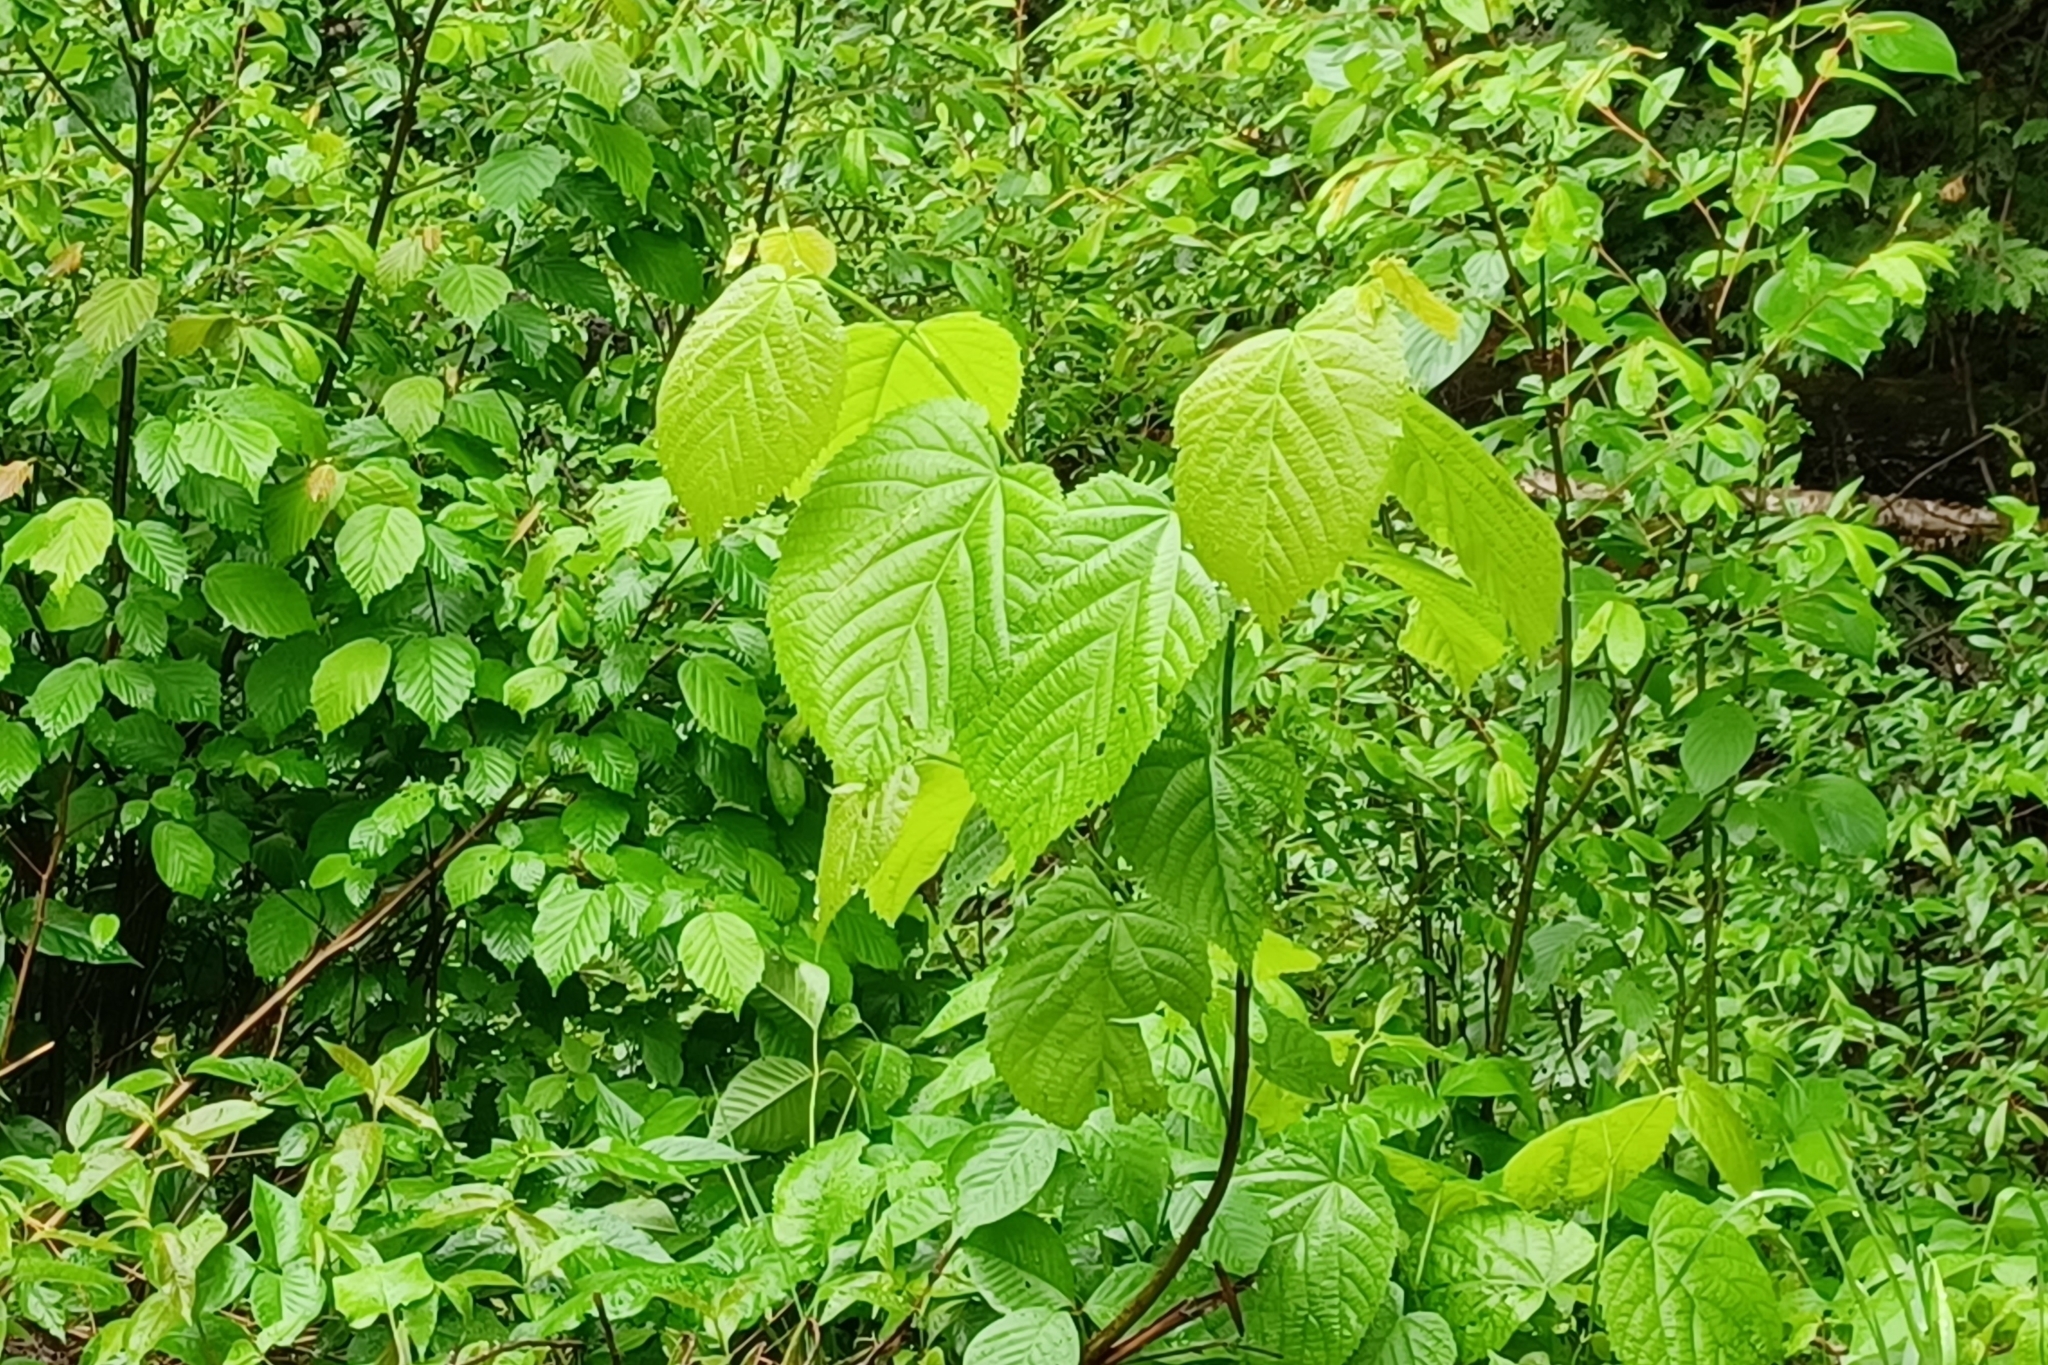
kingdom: Plantae
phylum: Tracheophyta
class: Magnoliopsida
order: Malvales
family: Malvaceae
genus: Tilia
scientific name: Tilia americana
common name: Basswood
